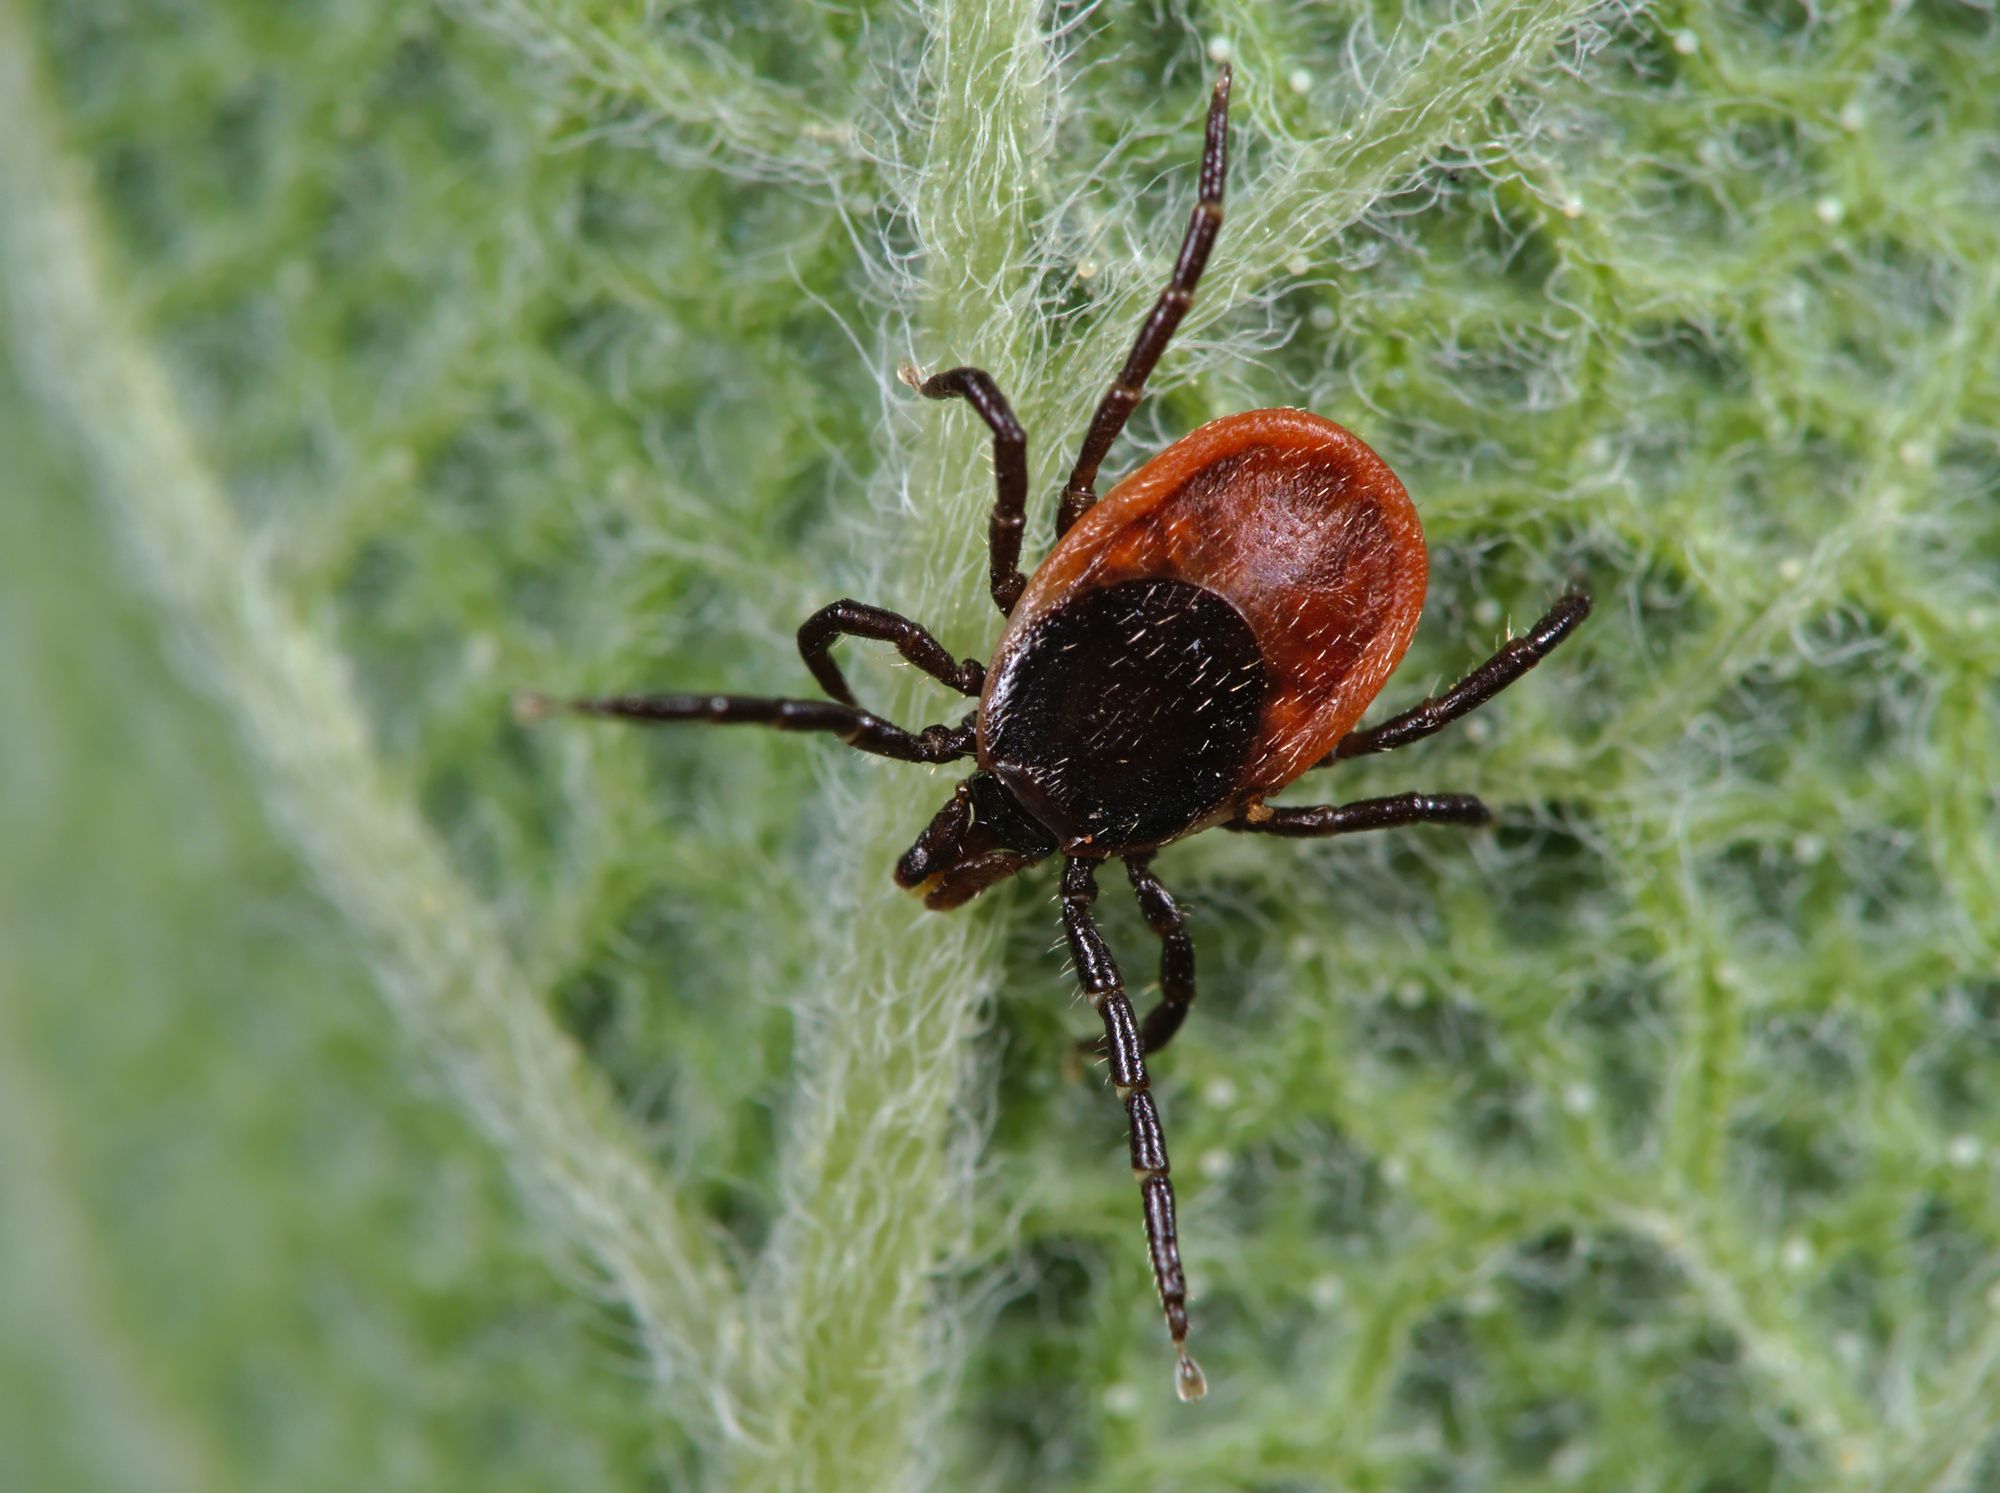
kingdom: Animalia
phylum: Arthropoda
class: Arachnida
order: Ixodida
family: Ixodidae
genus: Ixodes
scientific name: Ixodes ricinus
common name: Castor bean tick
